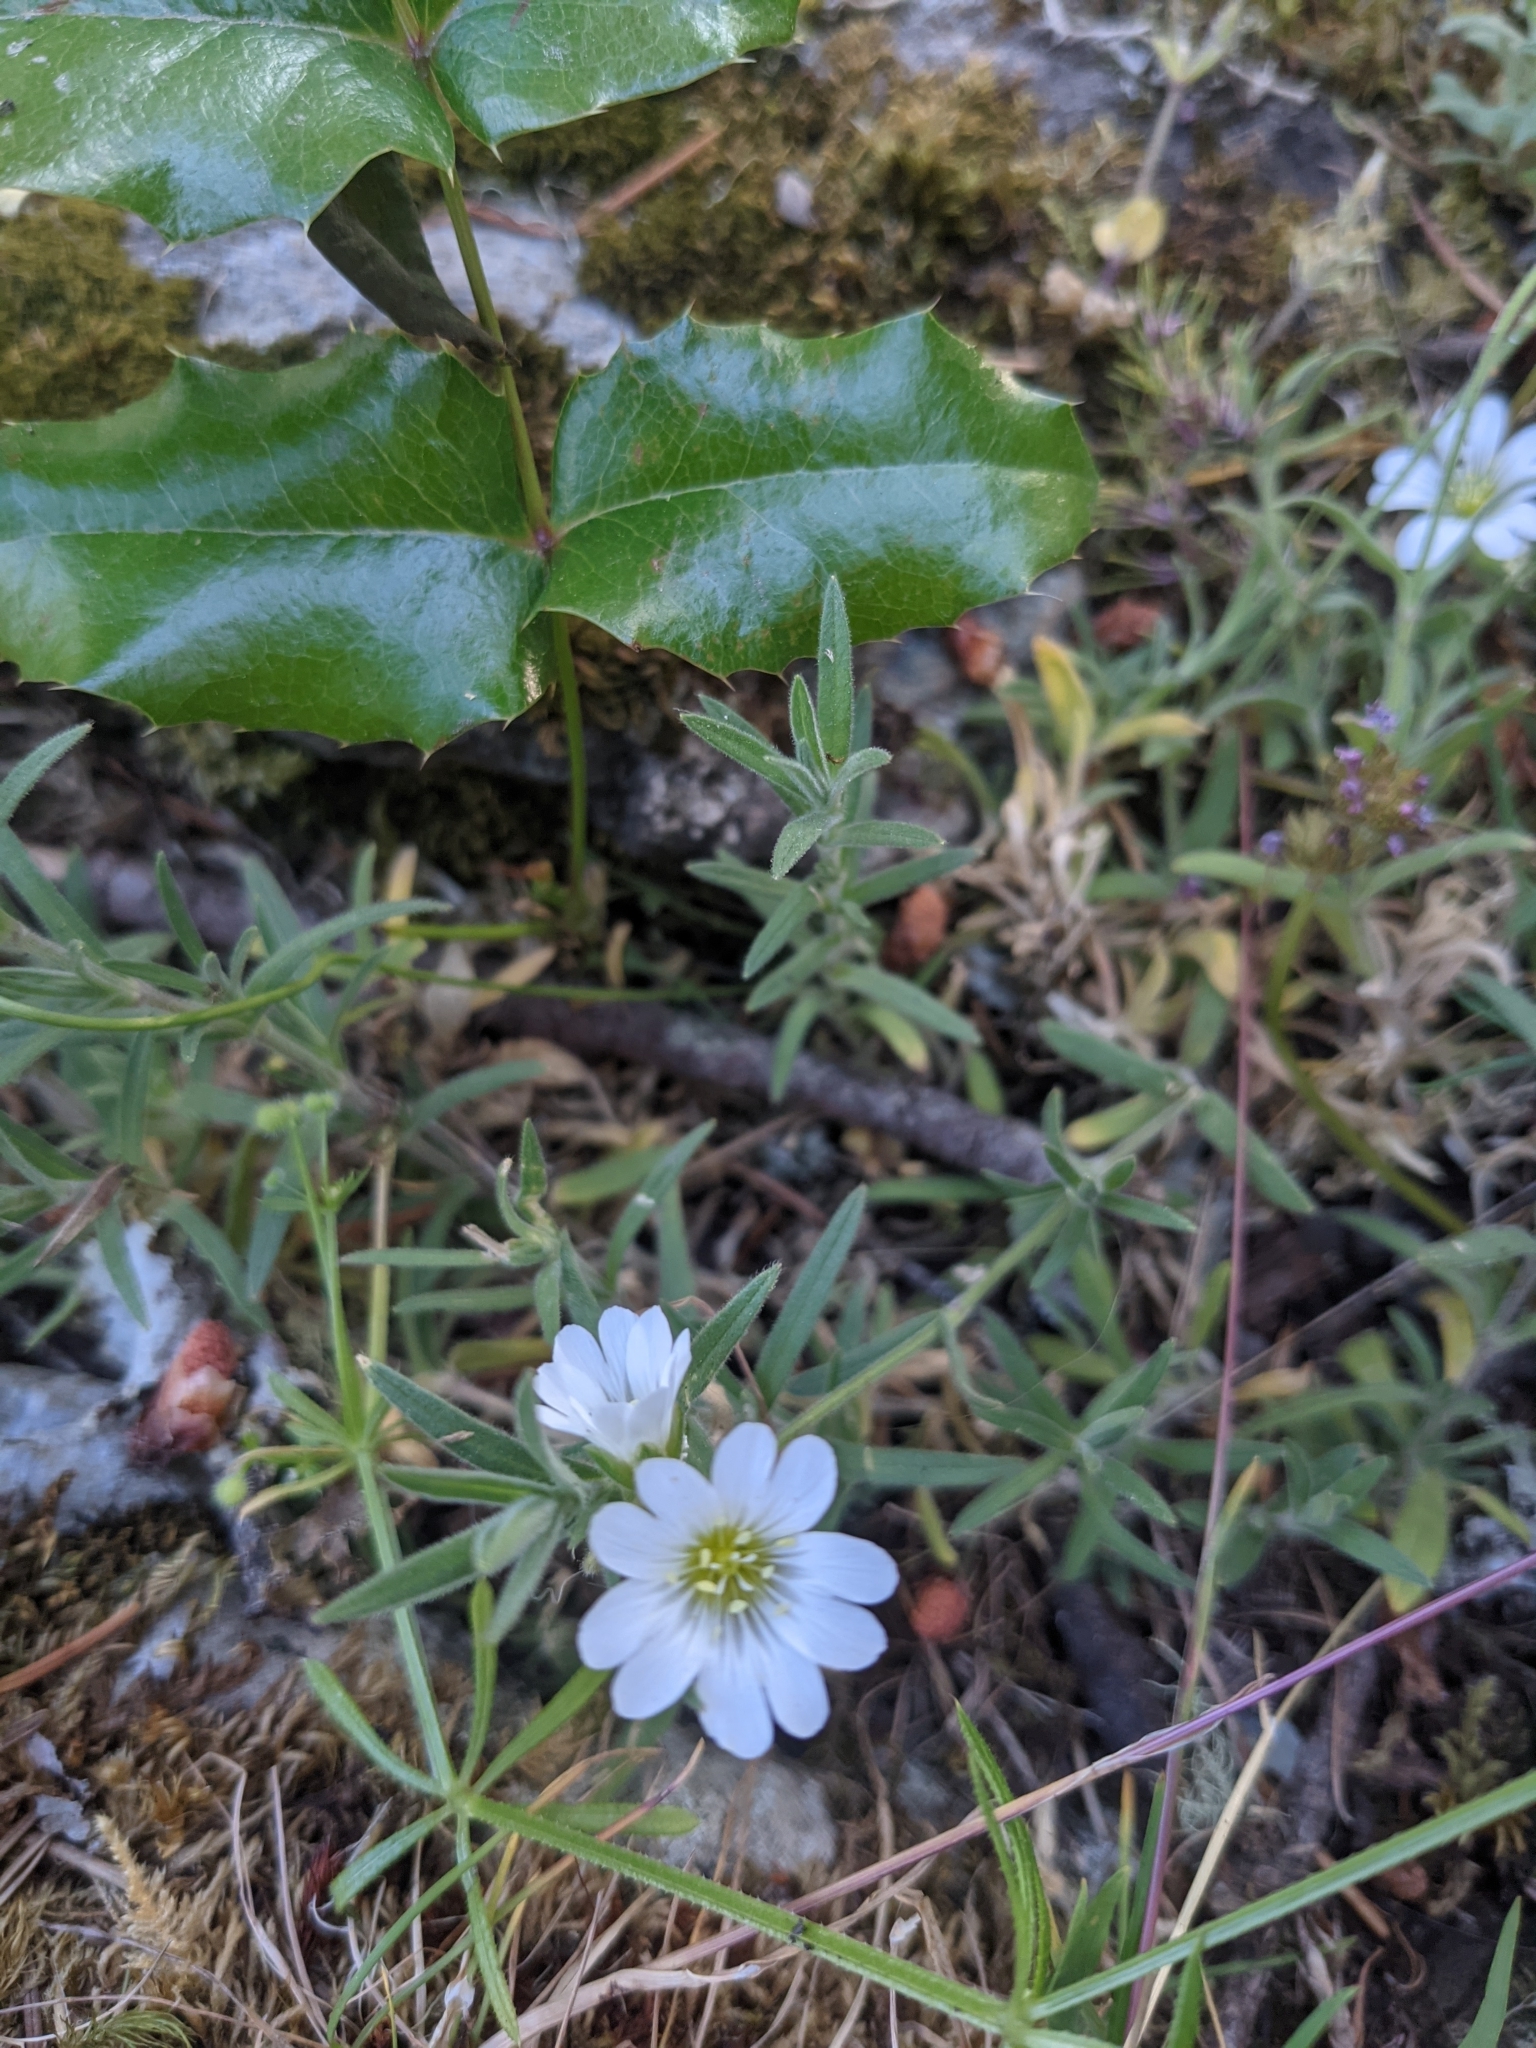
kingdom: Plantae
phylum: Tracheophyta
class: Magnoliopsida
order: Caryophyllales
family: Caryophyllaceae
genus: Cerastium
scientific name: Cerastium arvense
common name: Field mouse-ear
